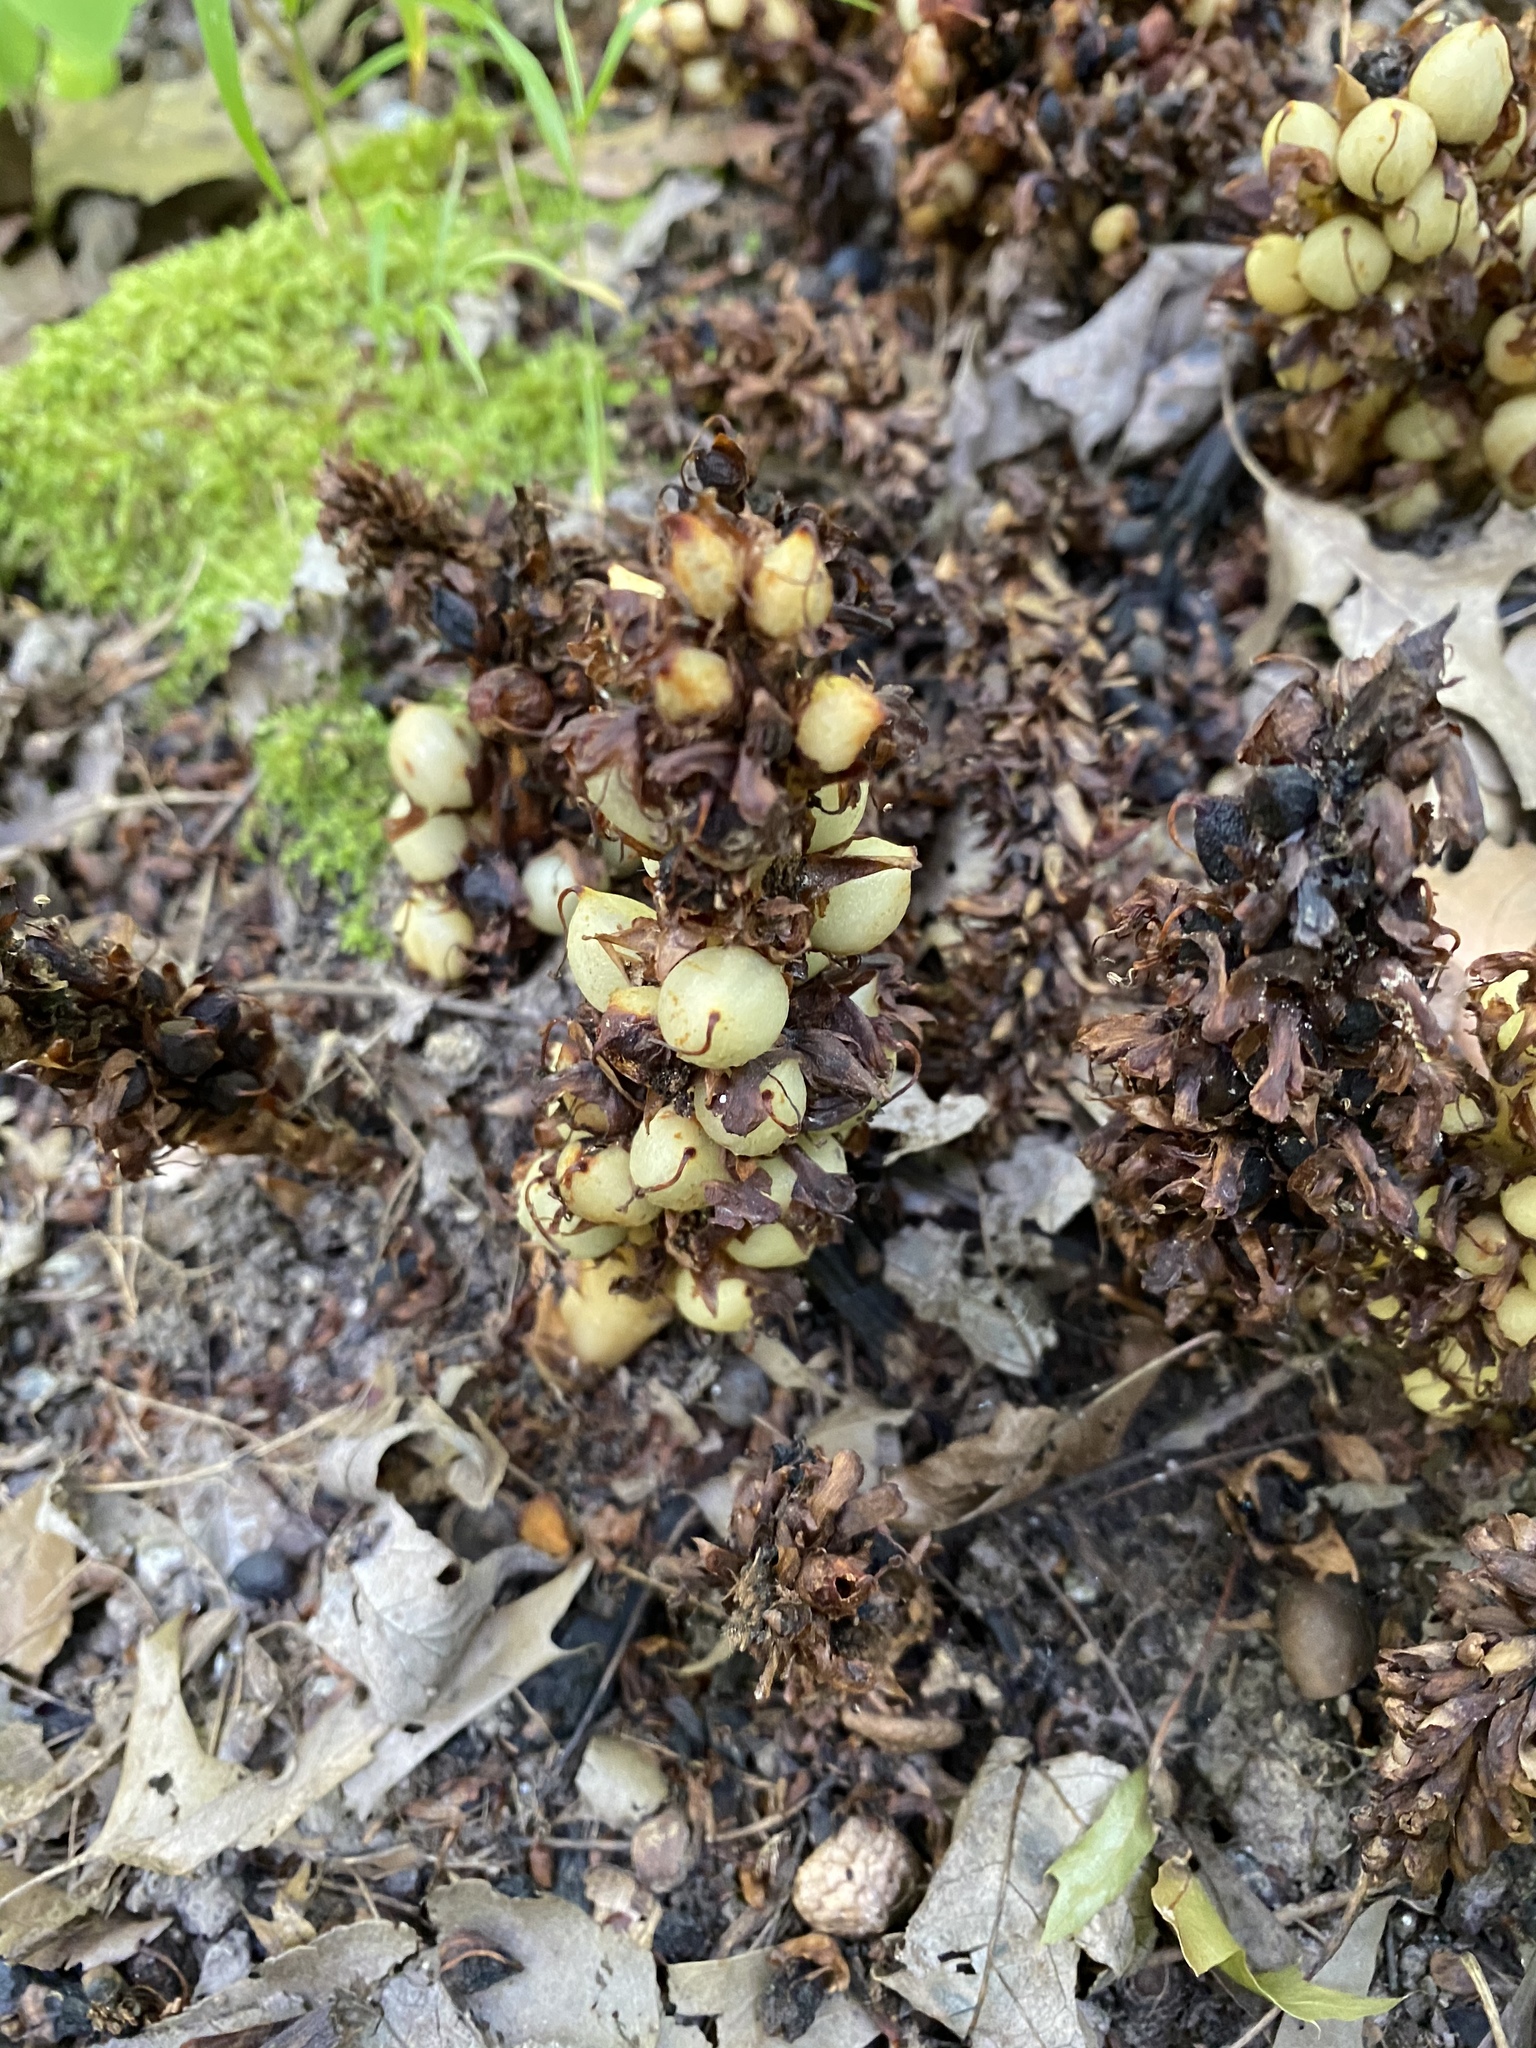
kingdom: Plantae
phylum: Tracheophyta
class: Magnoliopsida
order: Lamiales
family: Orobanchaceae
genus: Conopholis
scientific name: Conopholis americana
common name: American cancer-root
